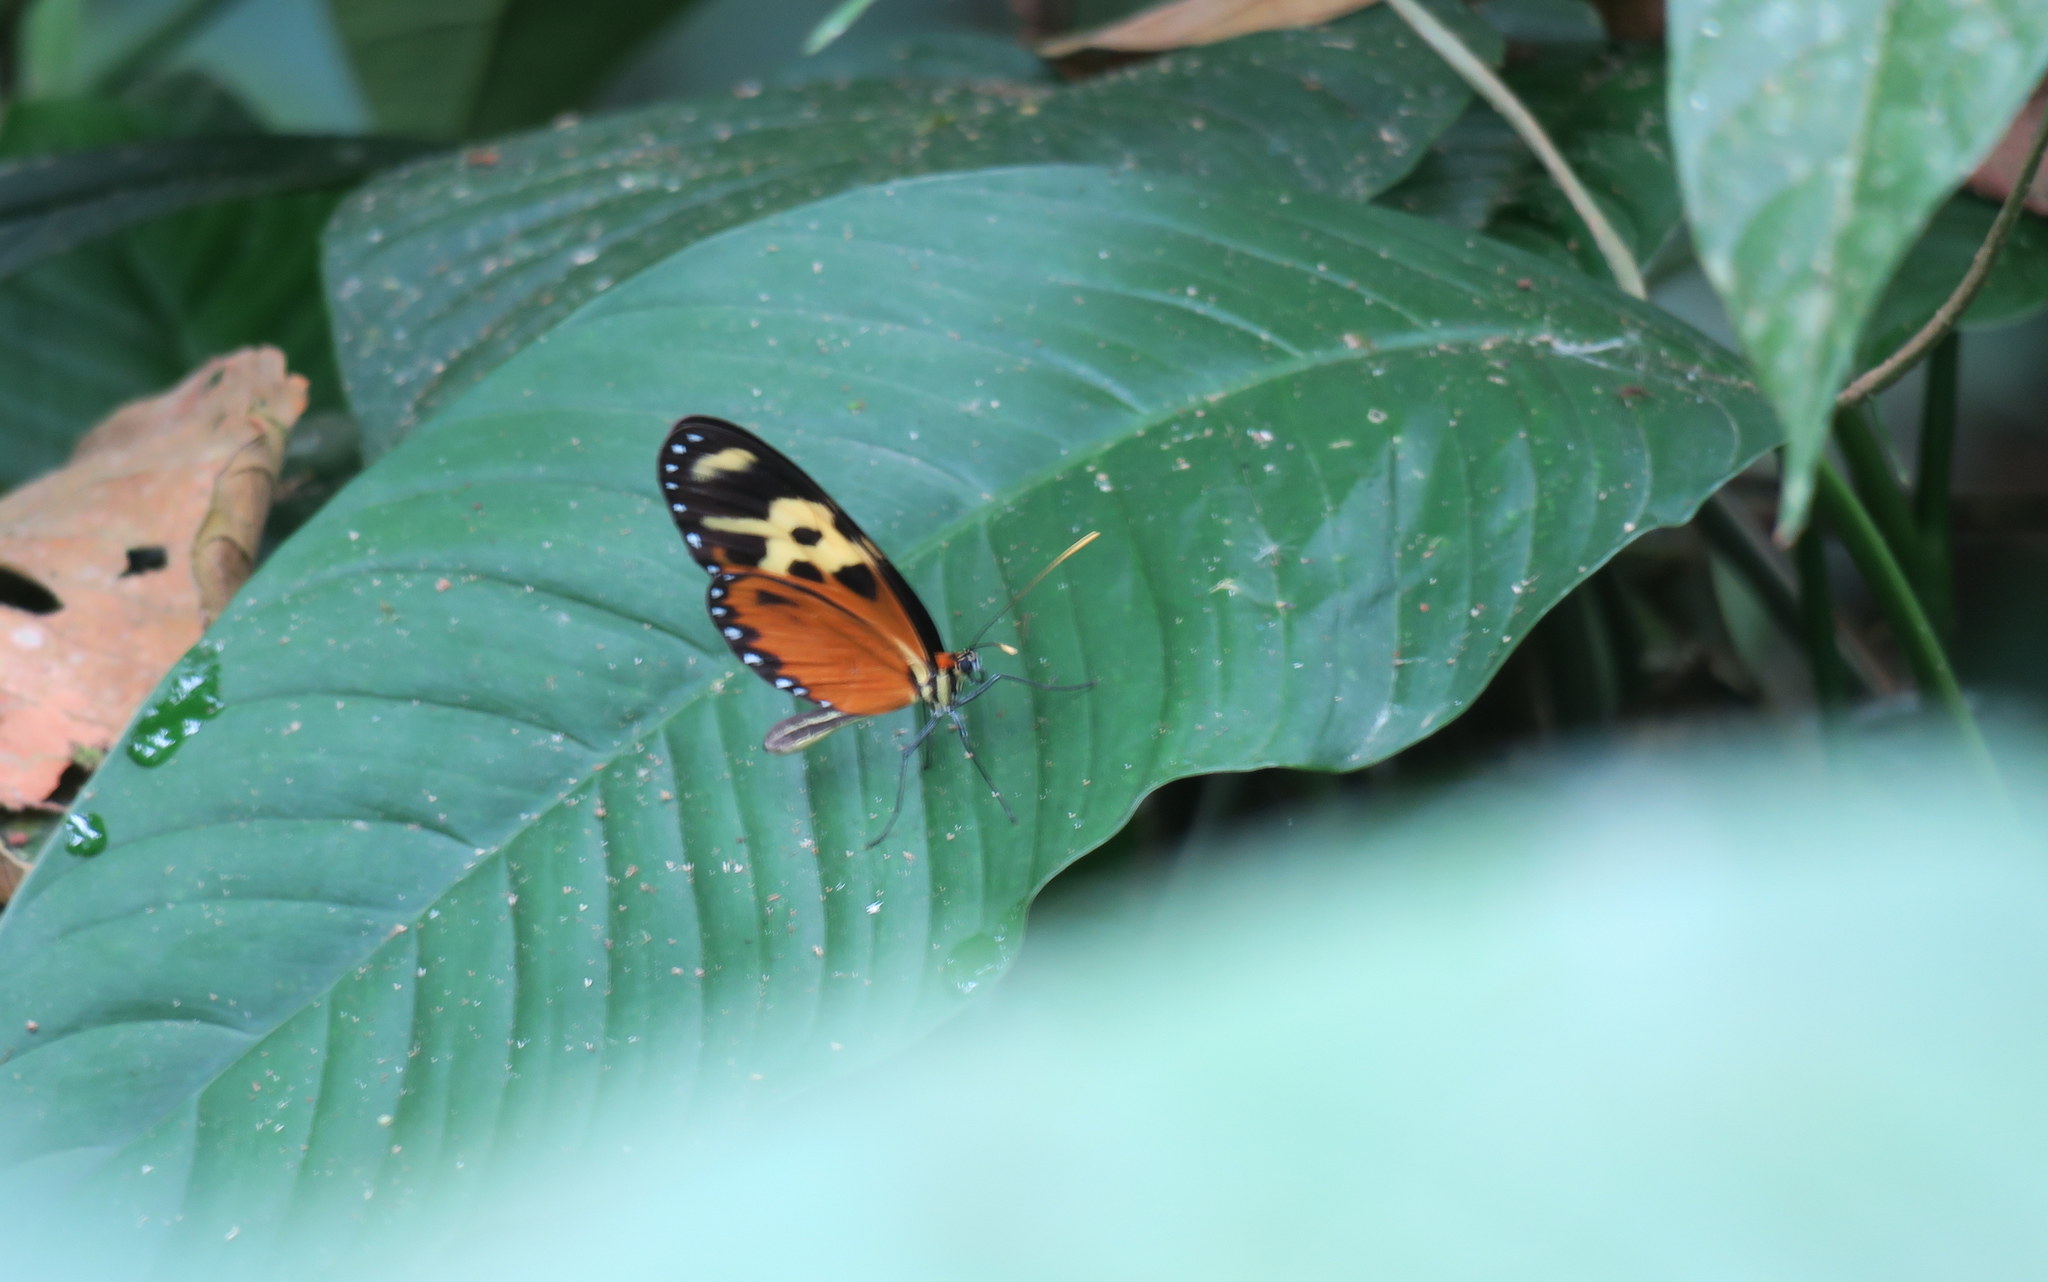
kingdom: Animalia
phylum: Arthropoda
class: Insecta
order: Lepidoptera
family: Nymphalidae
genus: Mechanitis
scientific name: Mechanitis polymnia
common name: Disturbed tigerwing
